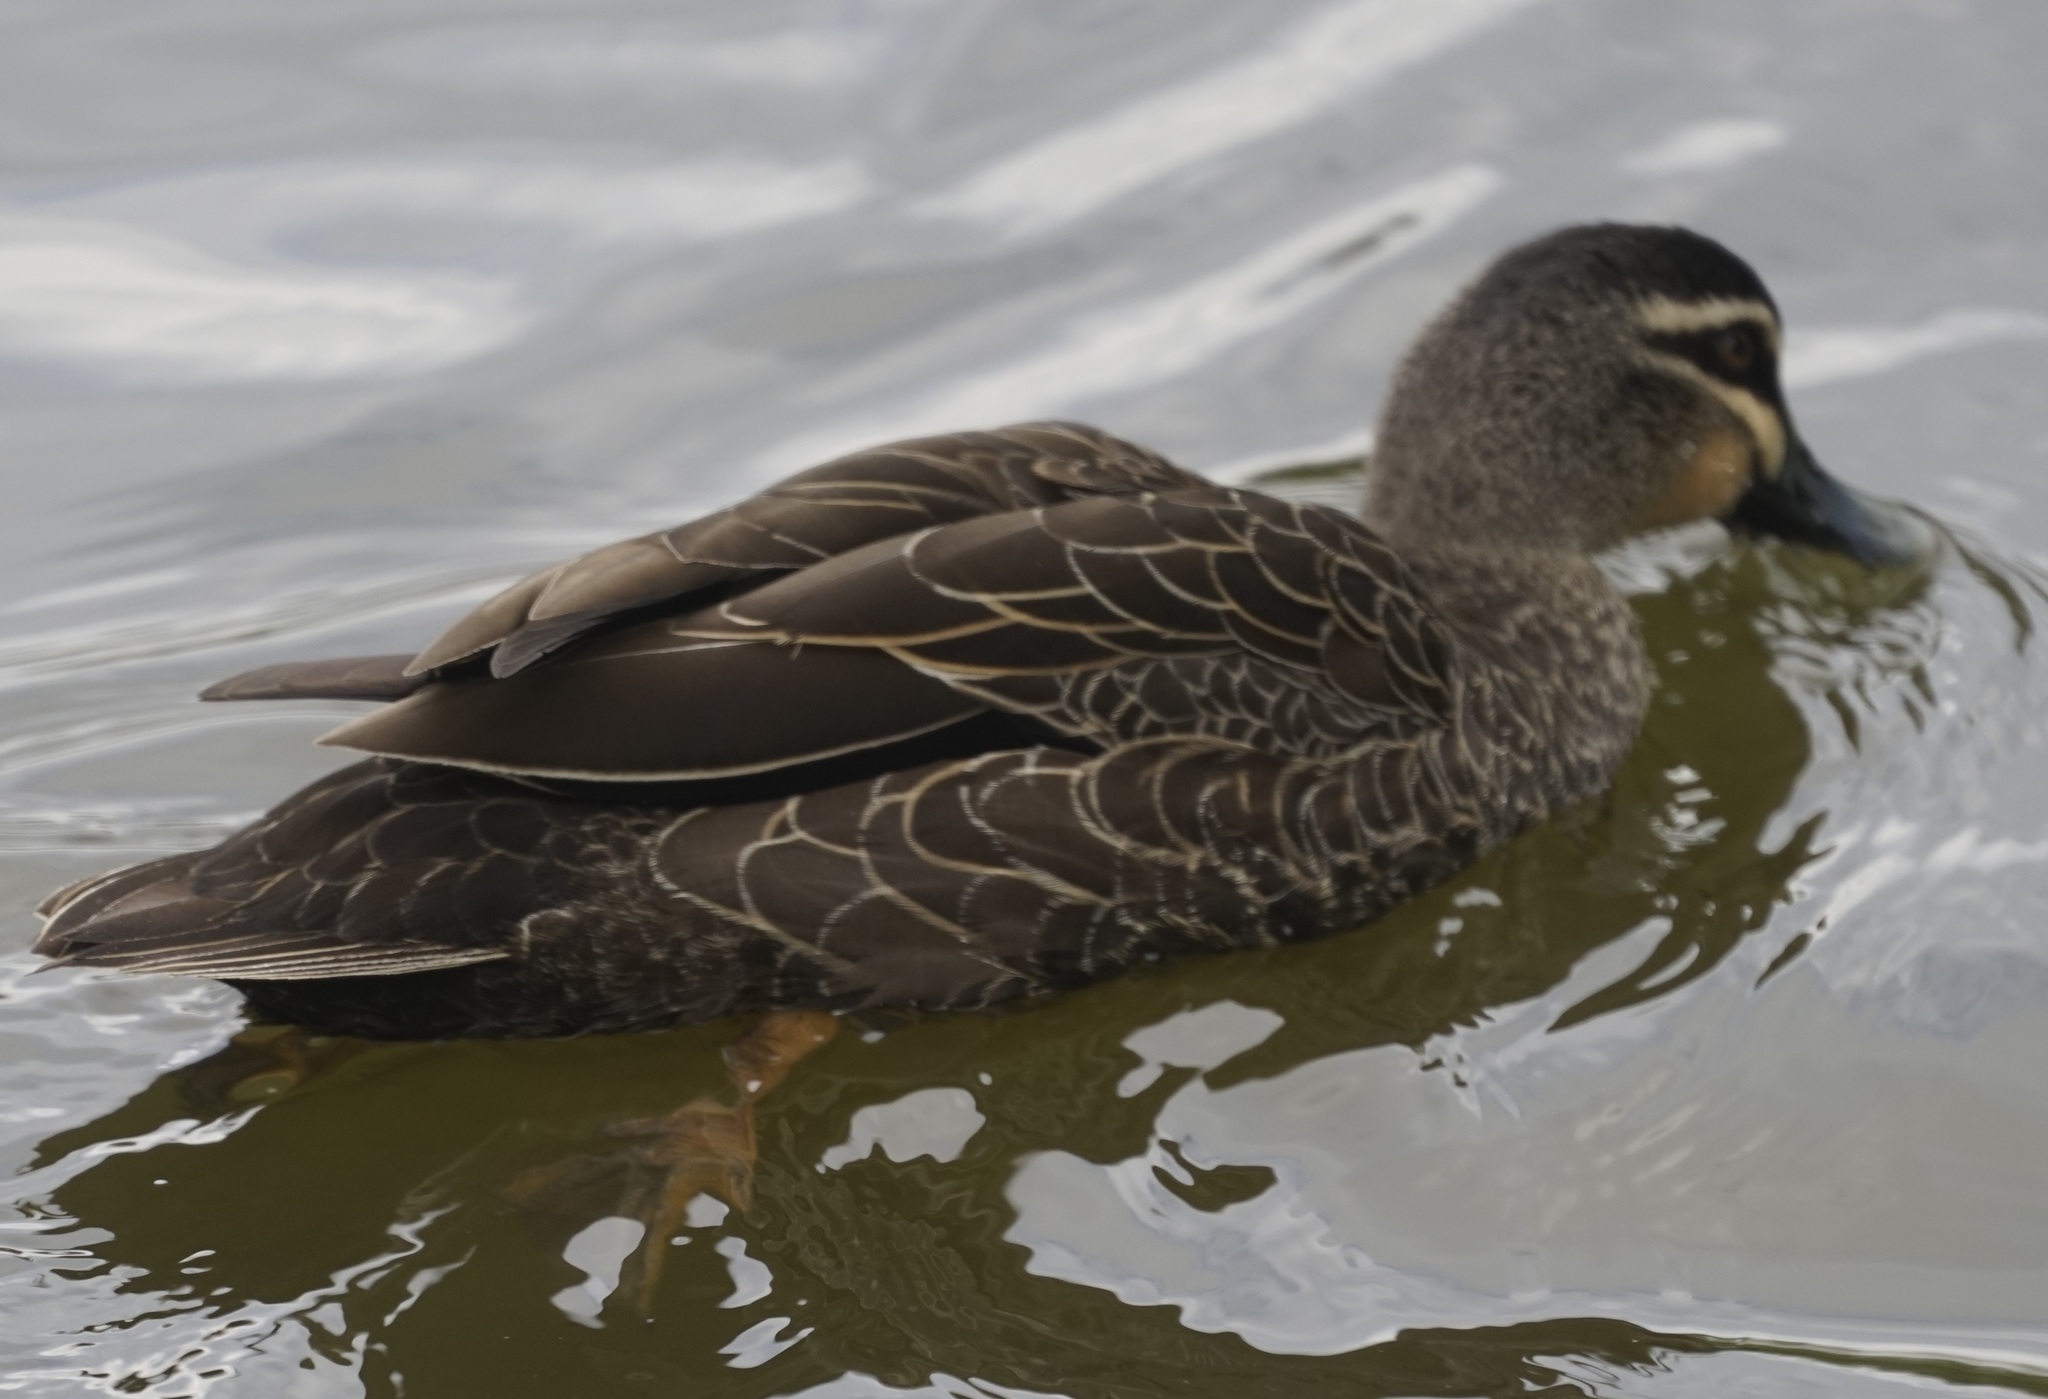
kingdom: Animalia
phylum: Chordata
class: Aves
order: Anseriformes
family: Anatidae
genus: Anas
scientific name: Anas superciliosa
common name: Pacific black duck
